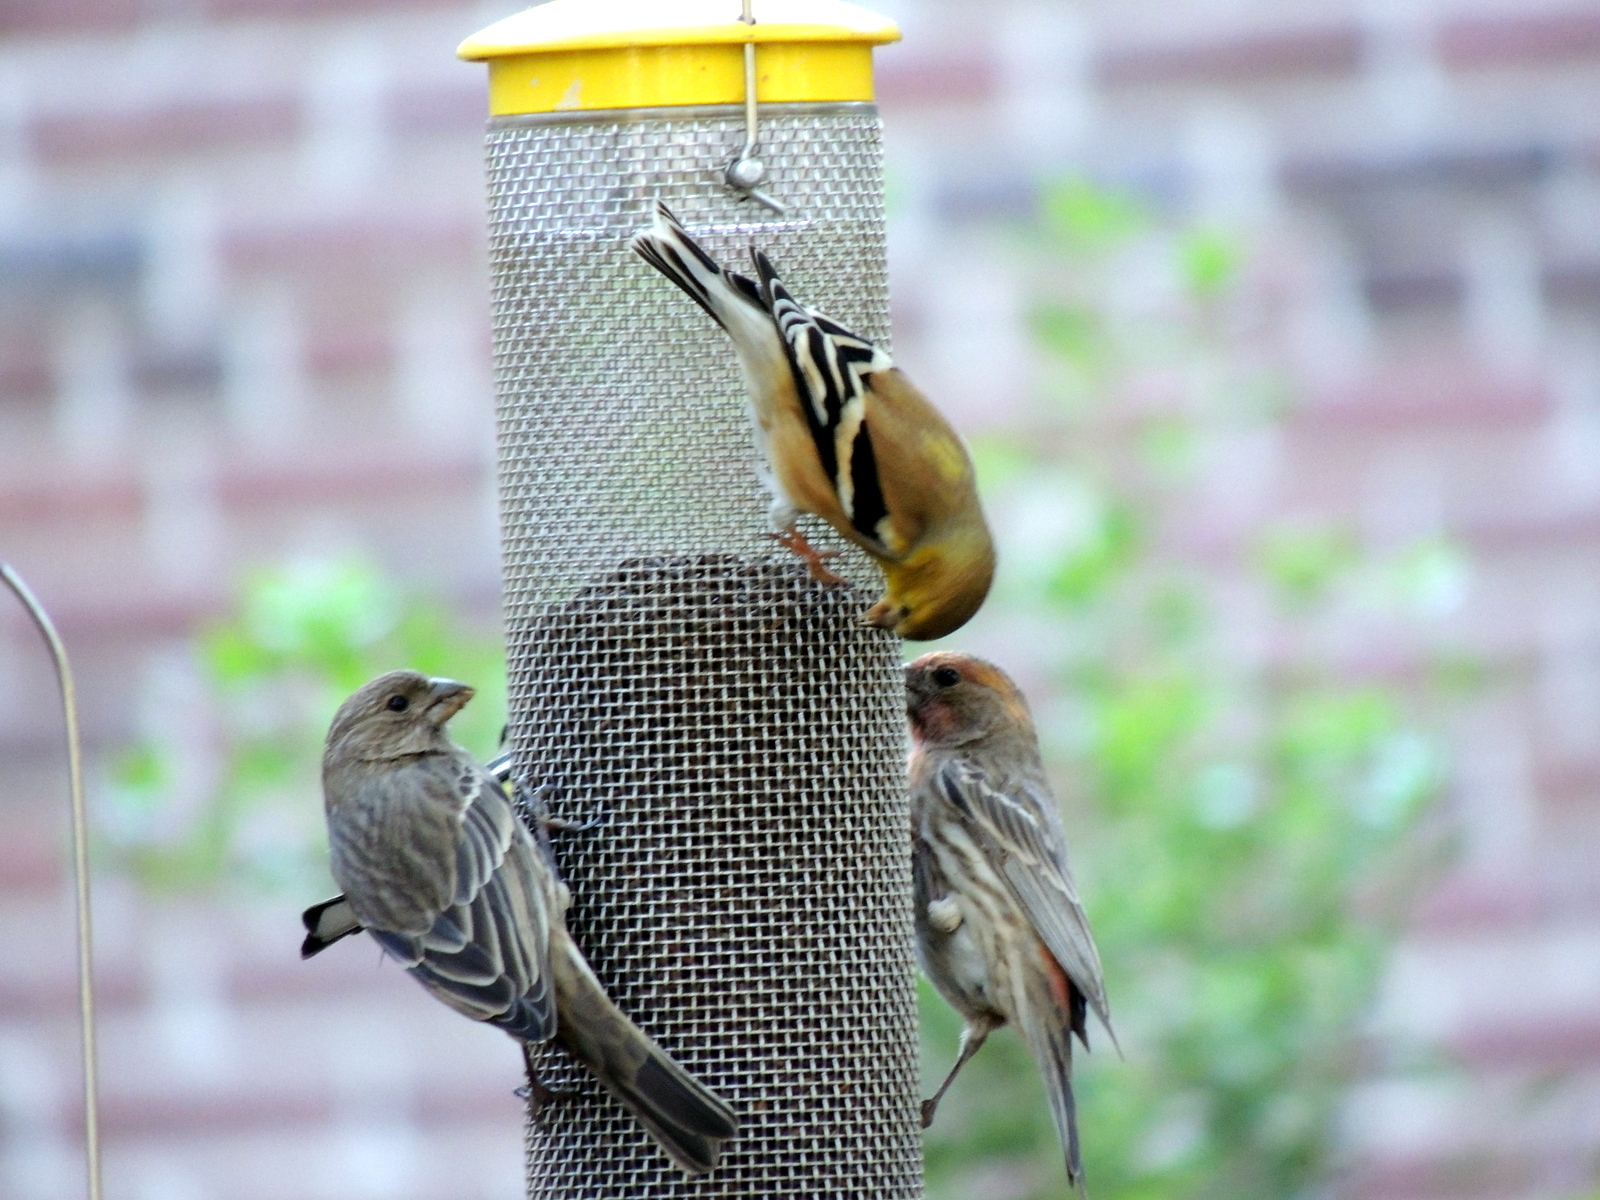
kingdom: Animalia
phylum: Chordata
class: Aves
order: Passeriformes
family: Fringillidae
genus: Haemorhous
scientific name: Haemorhous mexicanus
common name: House finch
